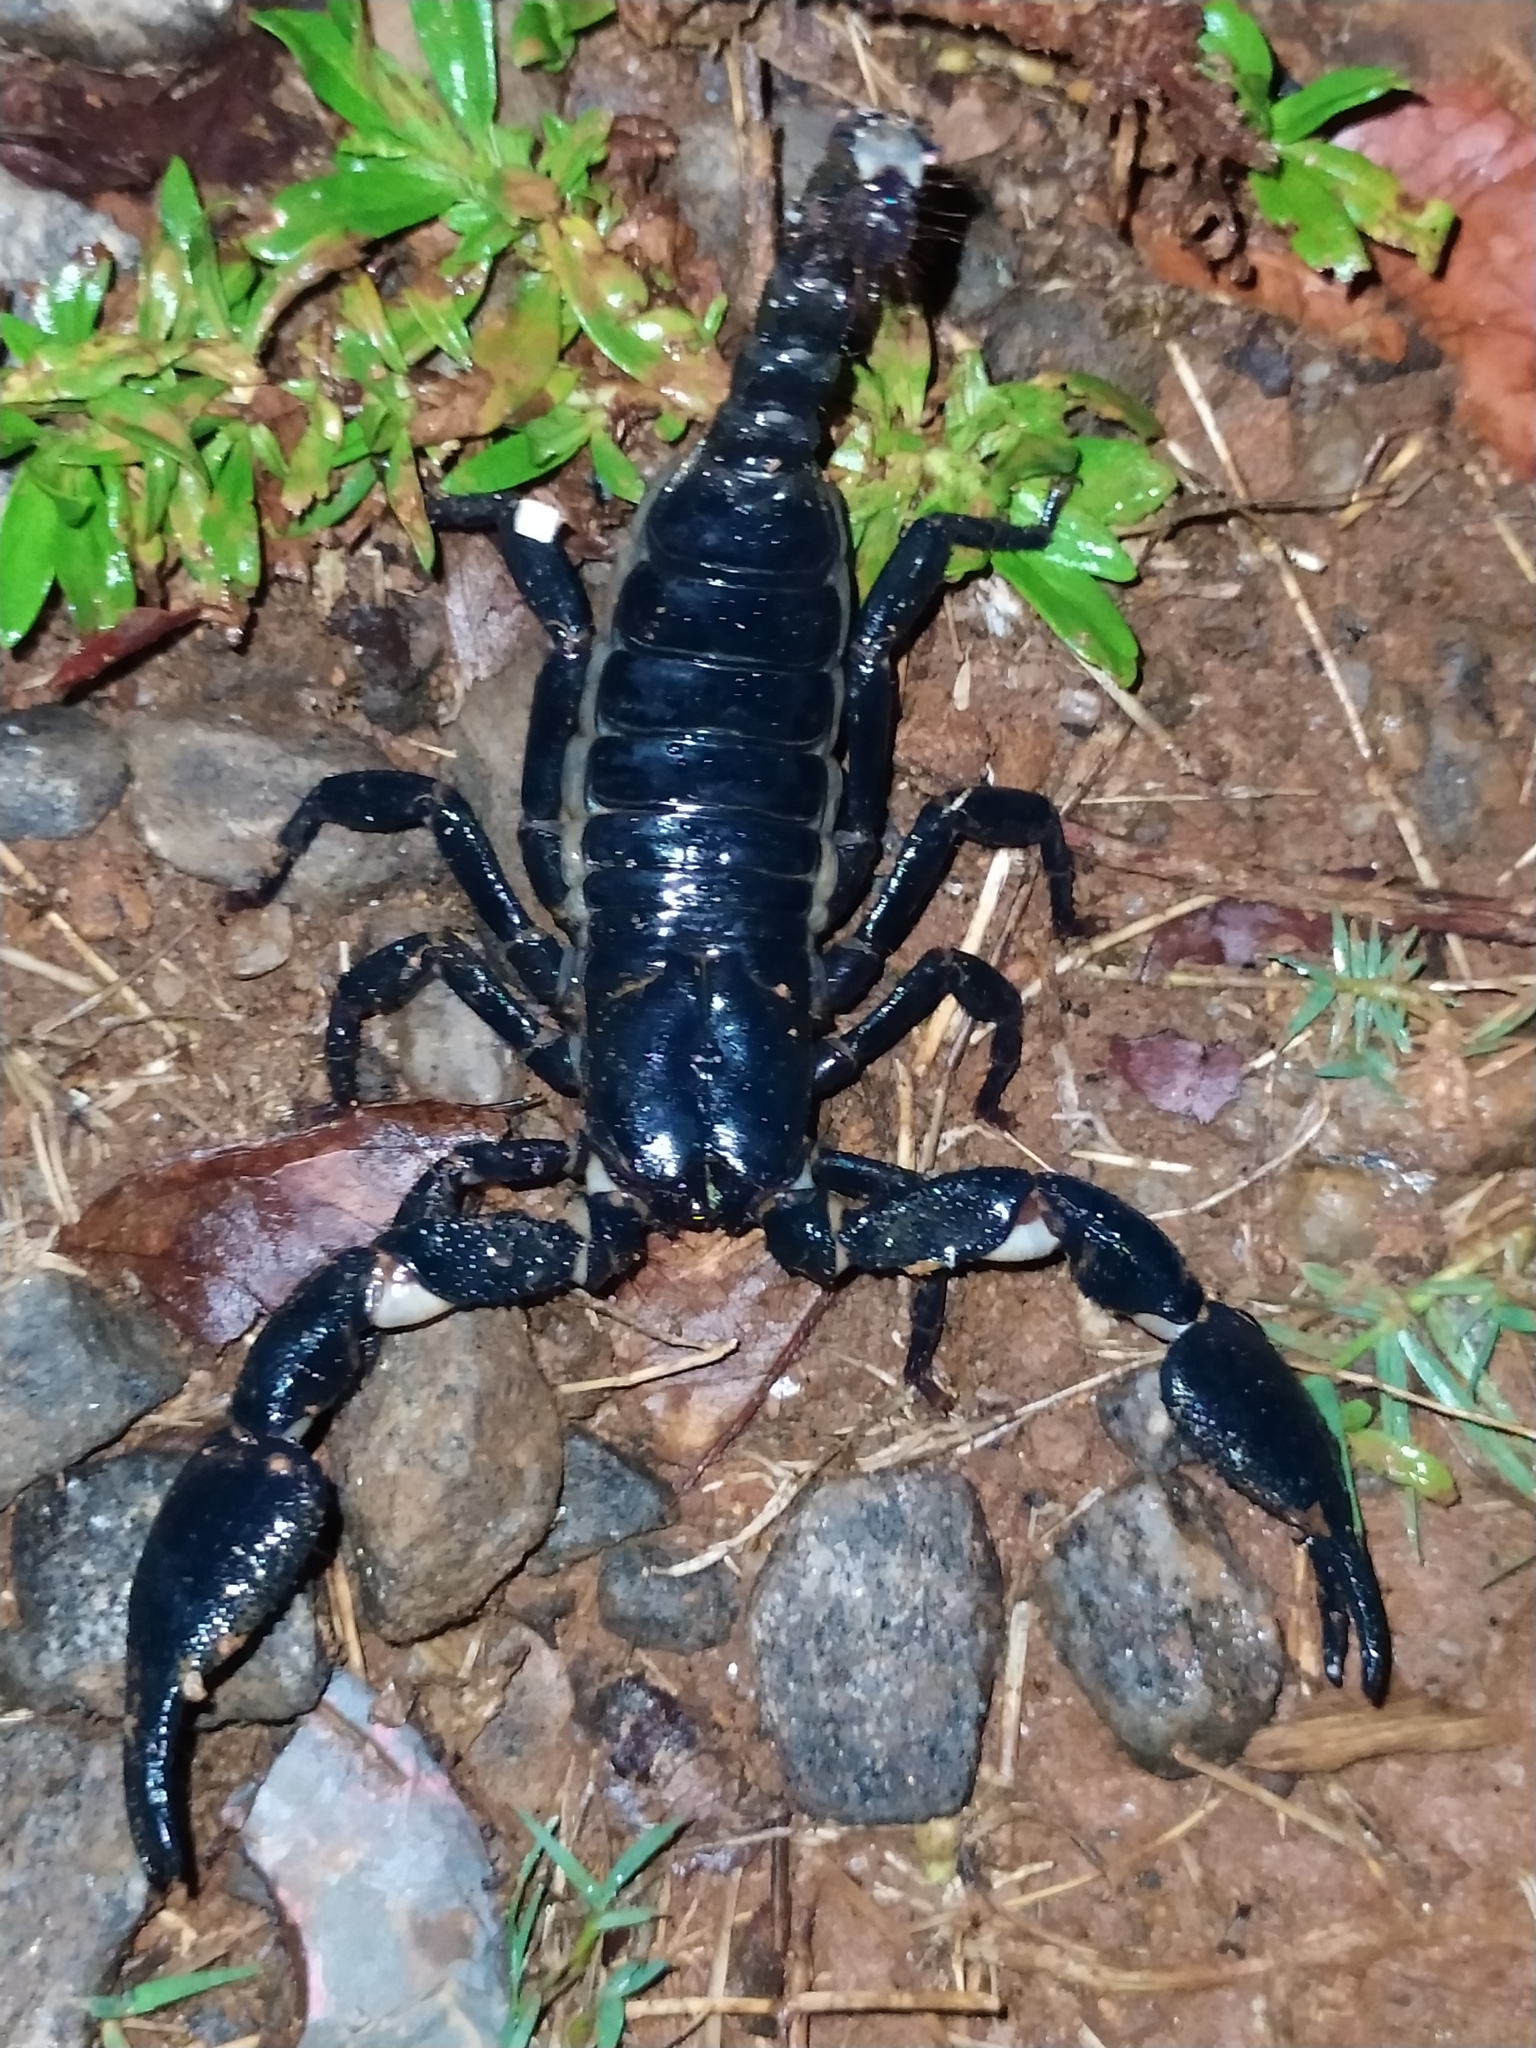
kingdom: Animalia
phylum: Arthropoda
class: Arachnida
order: Scorpiones
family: Scorpionidae
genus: Sahyadrimetrus
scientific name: Sahyadrimetrus rugosus
